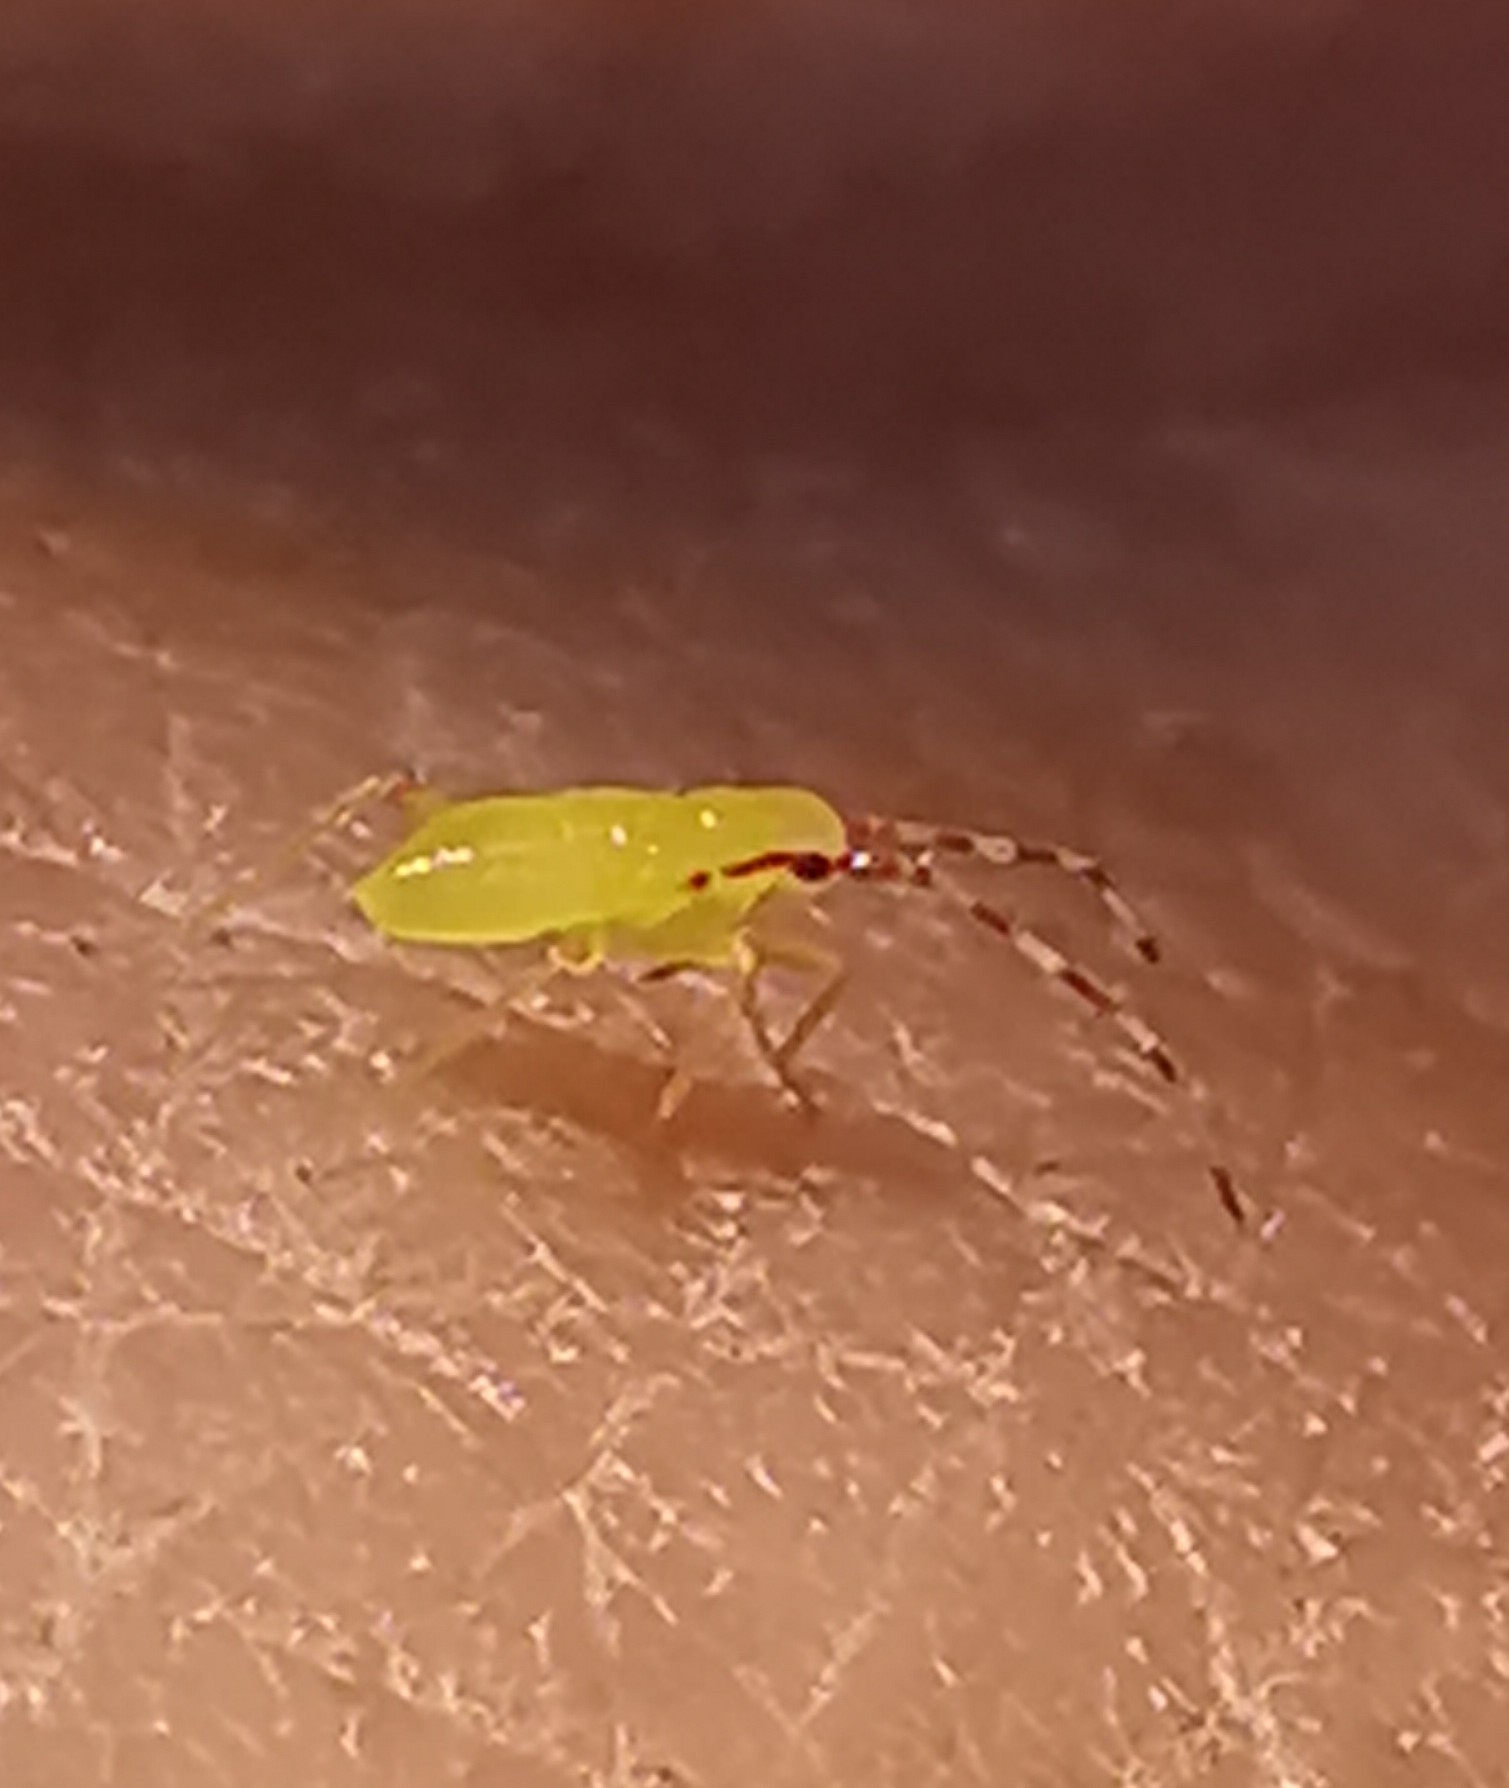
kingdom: Animalia
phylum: Arthropoda
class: Insecta
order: Hemiptera
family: Miridae
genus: Campyloneura
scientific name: Campyloneura virgula
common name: Predatory bug
